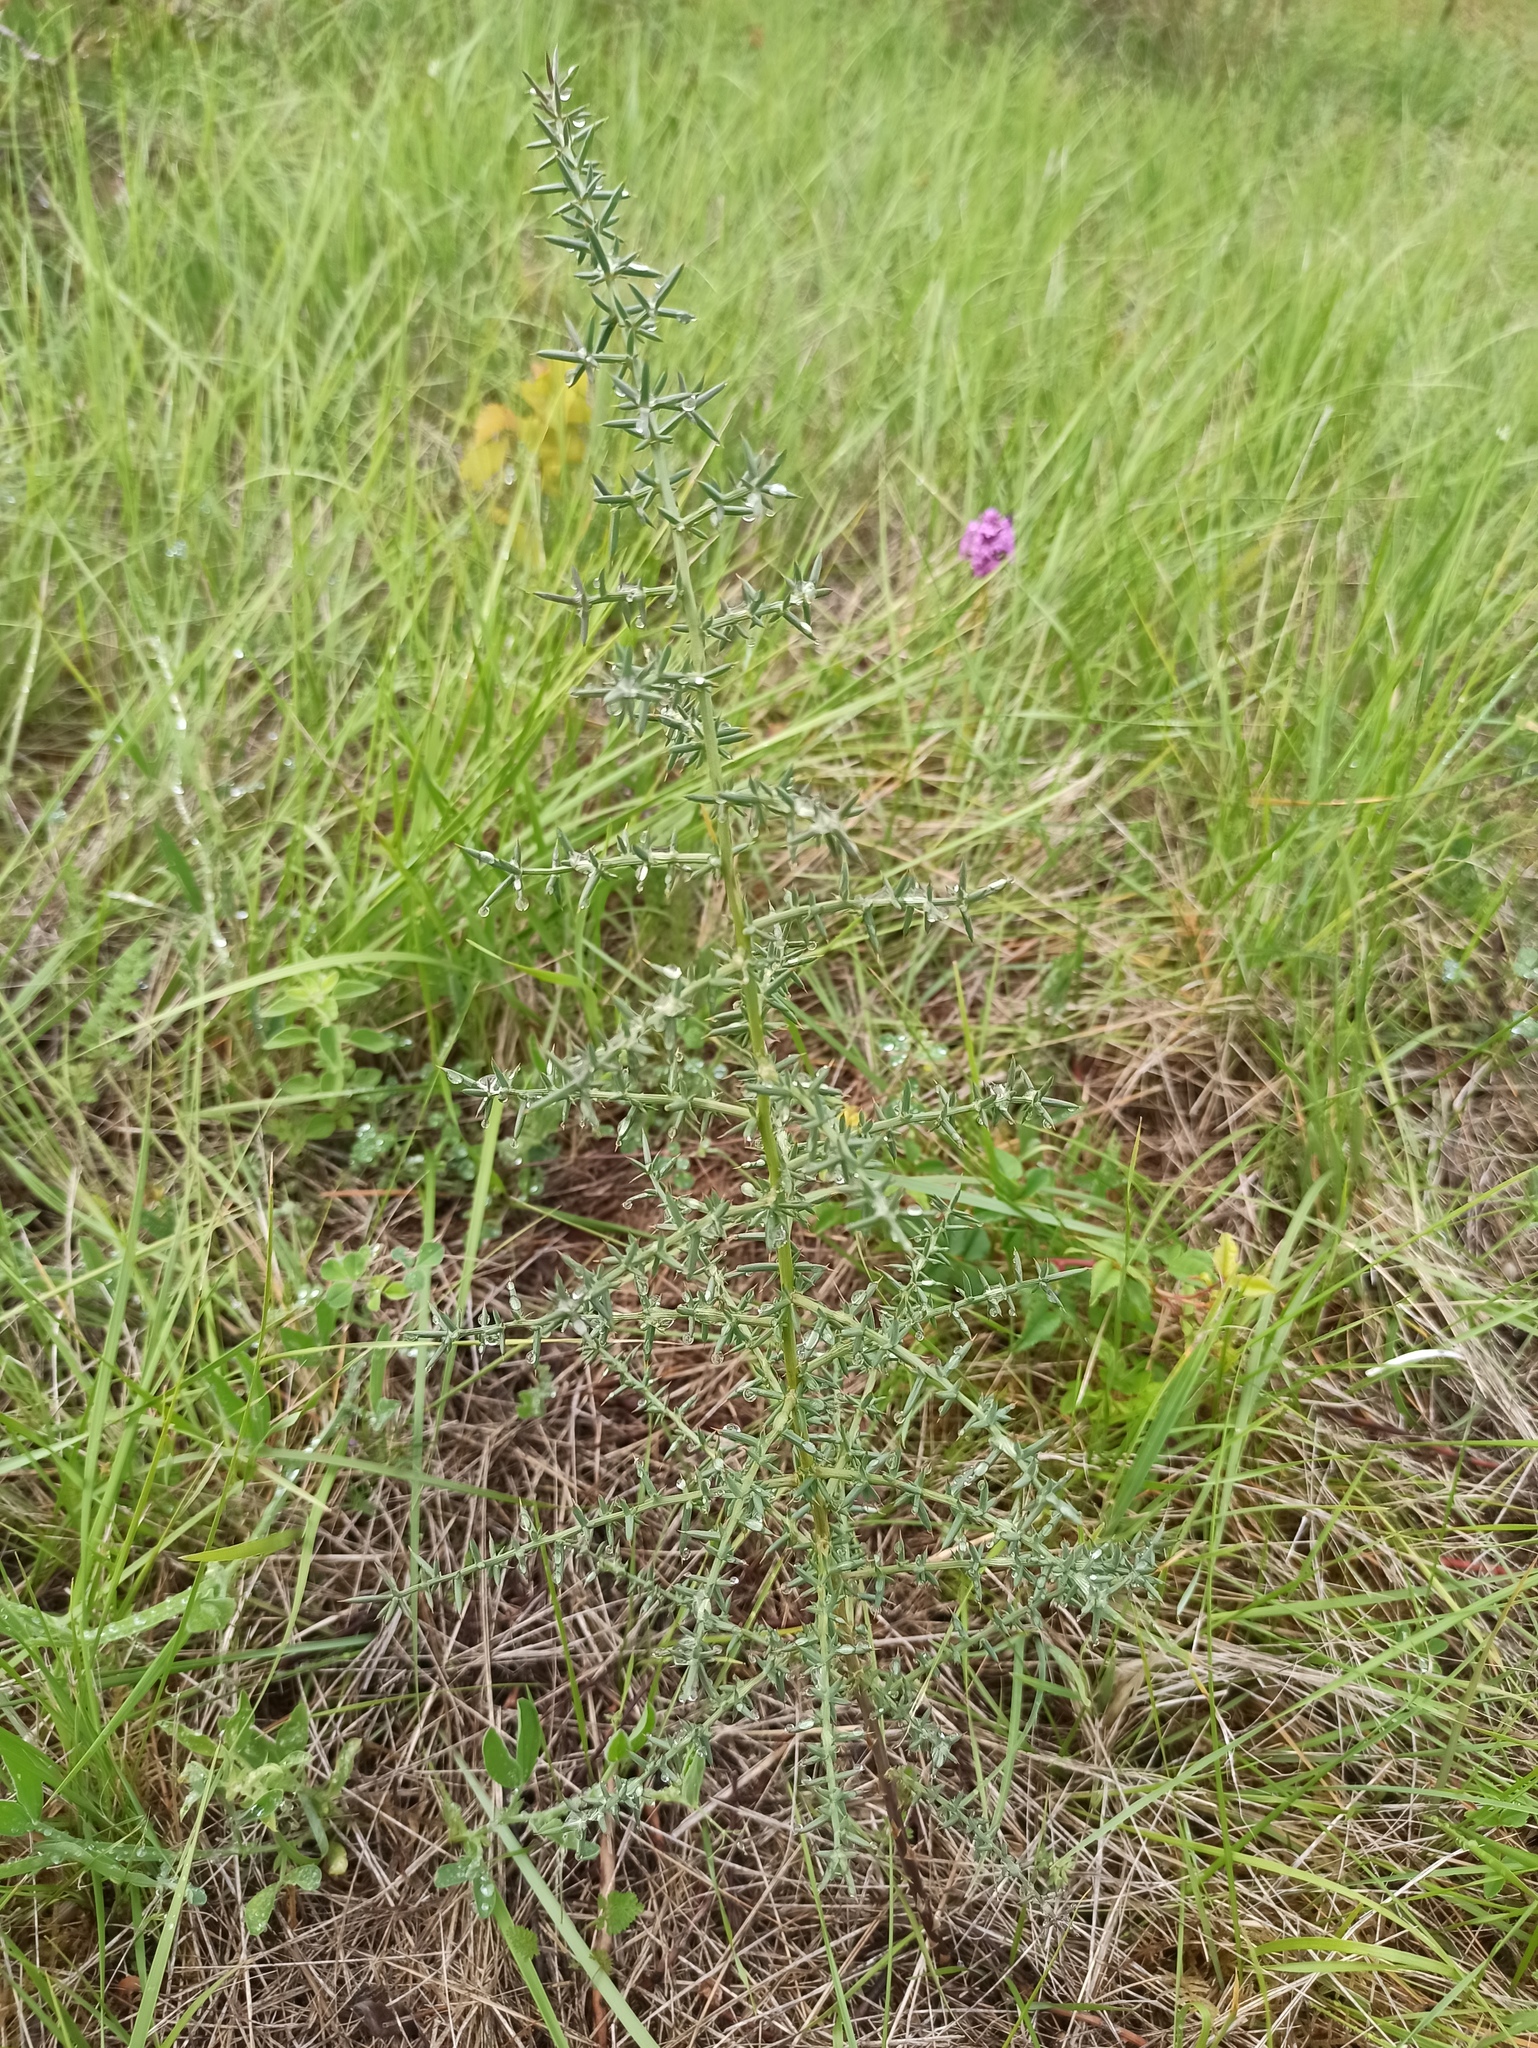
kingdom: Plantae
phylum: Tracheophyta
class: Liliopsida
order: Asparagales
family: Asparagaceae
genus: Asparagus
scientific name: Asparagus aphyllus
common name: Mediterranean asparagus
